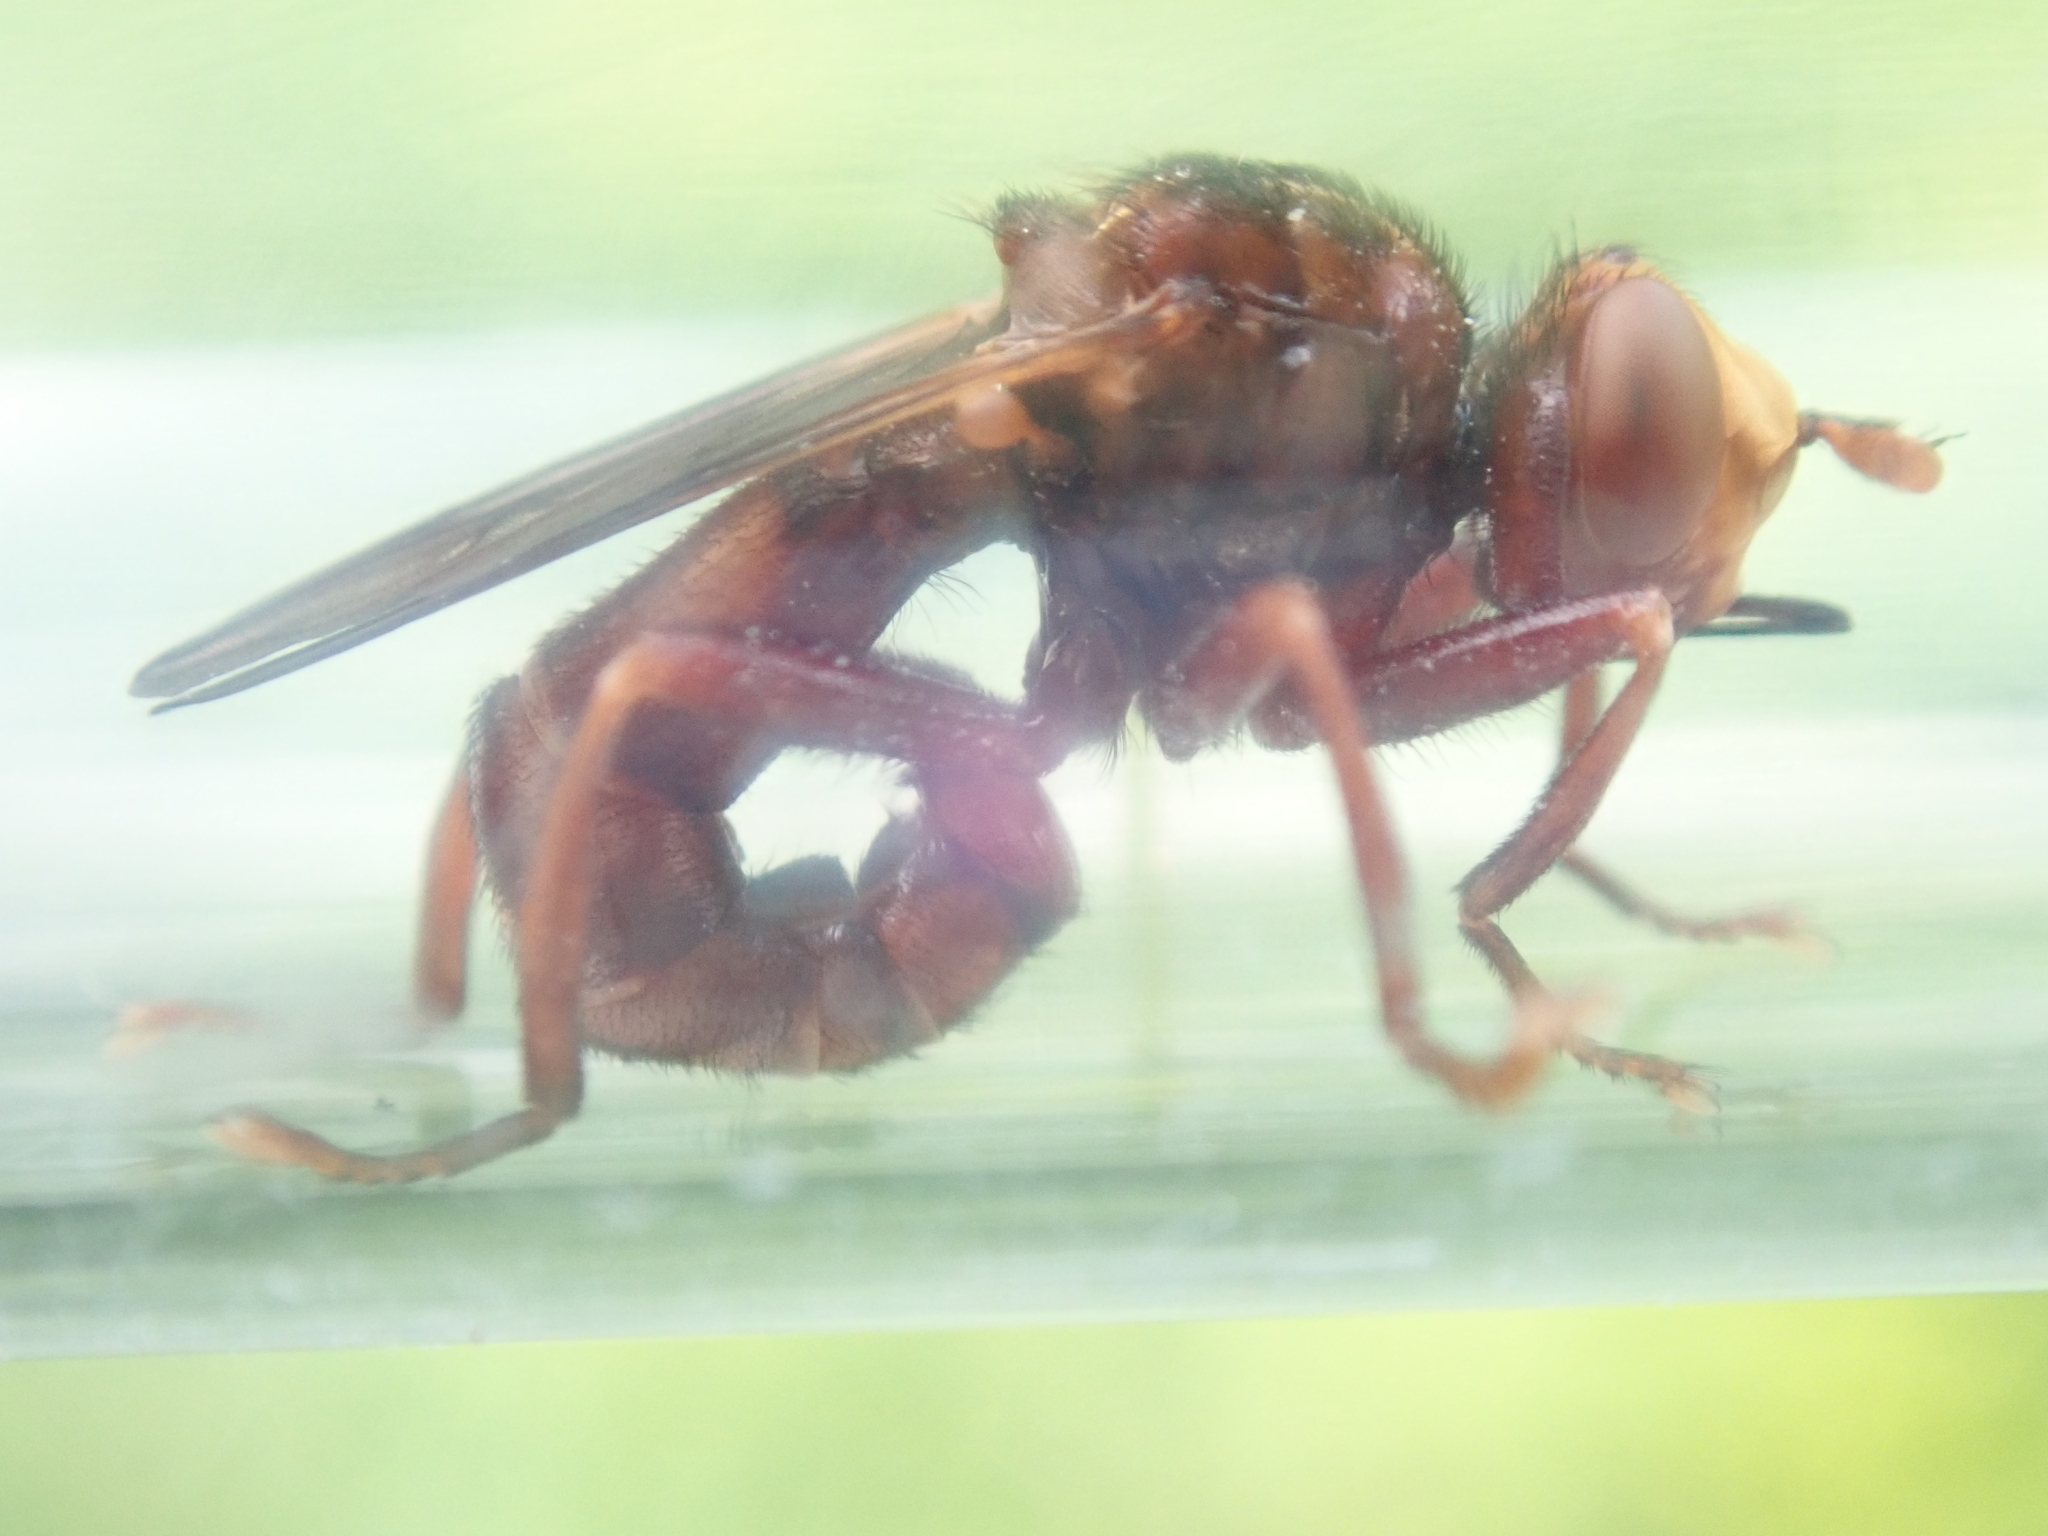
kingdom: Animalia
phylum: Arthropoda
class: Insecta
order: Diptera
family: Conopidae
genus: Sicus
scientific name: Sicus ferrugineus
